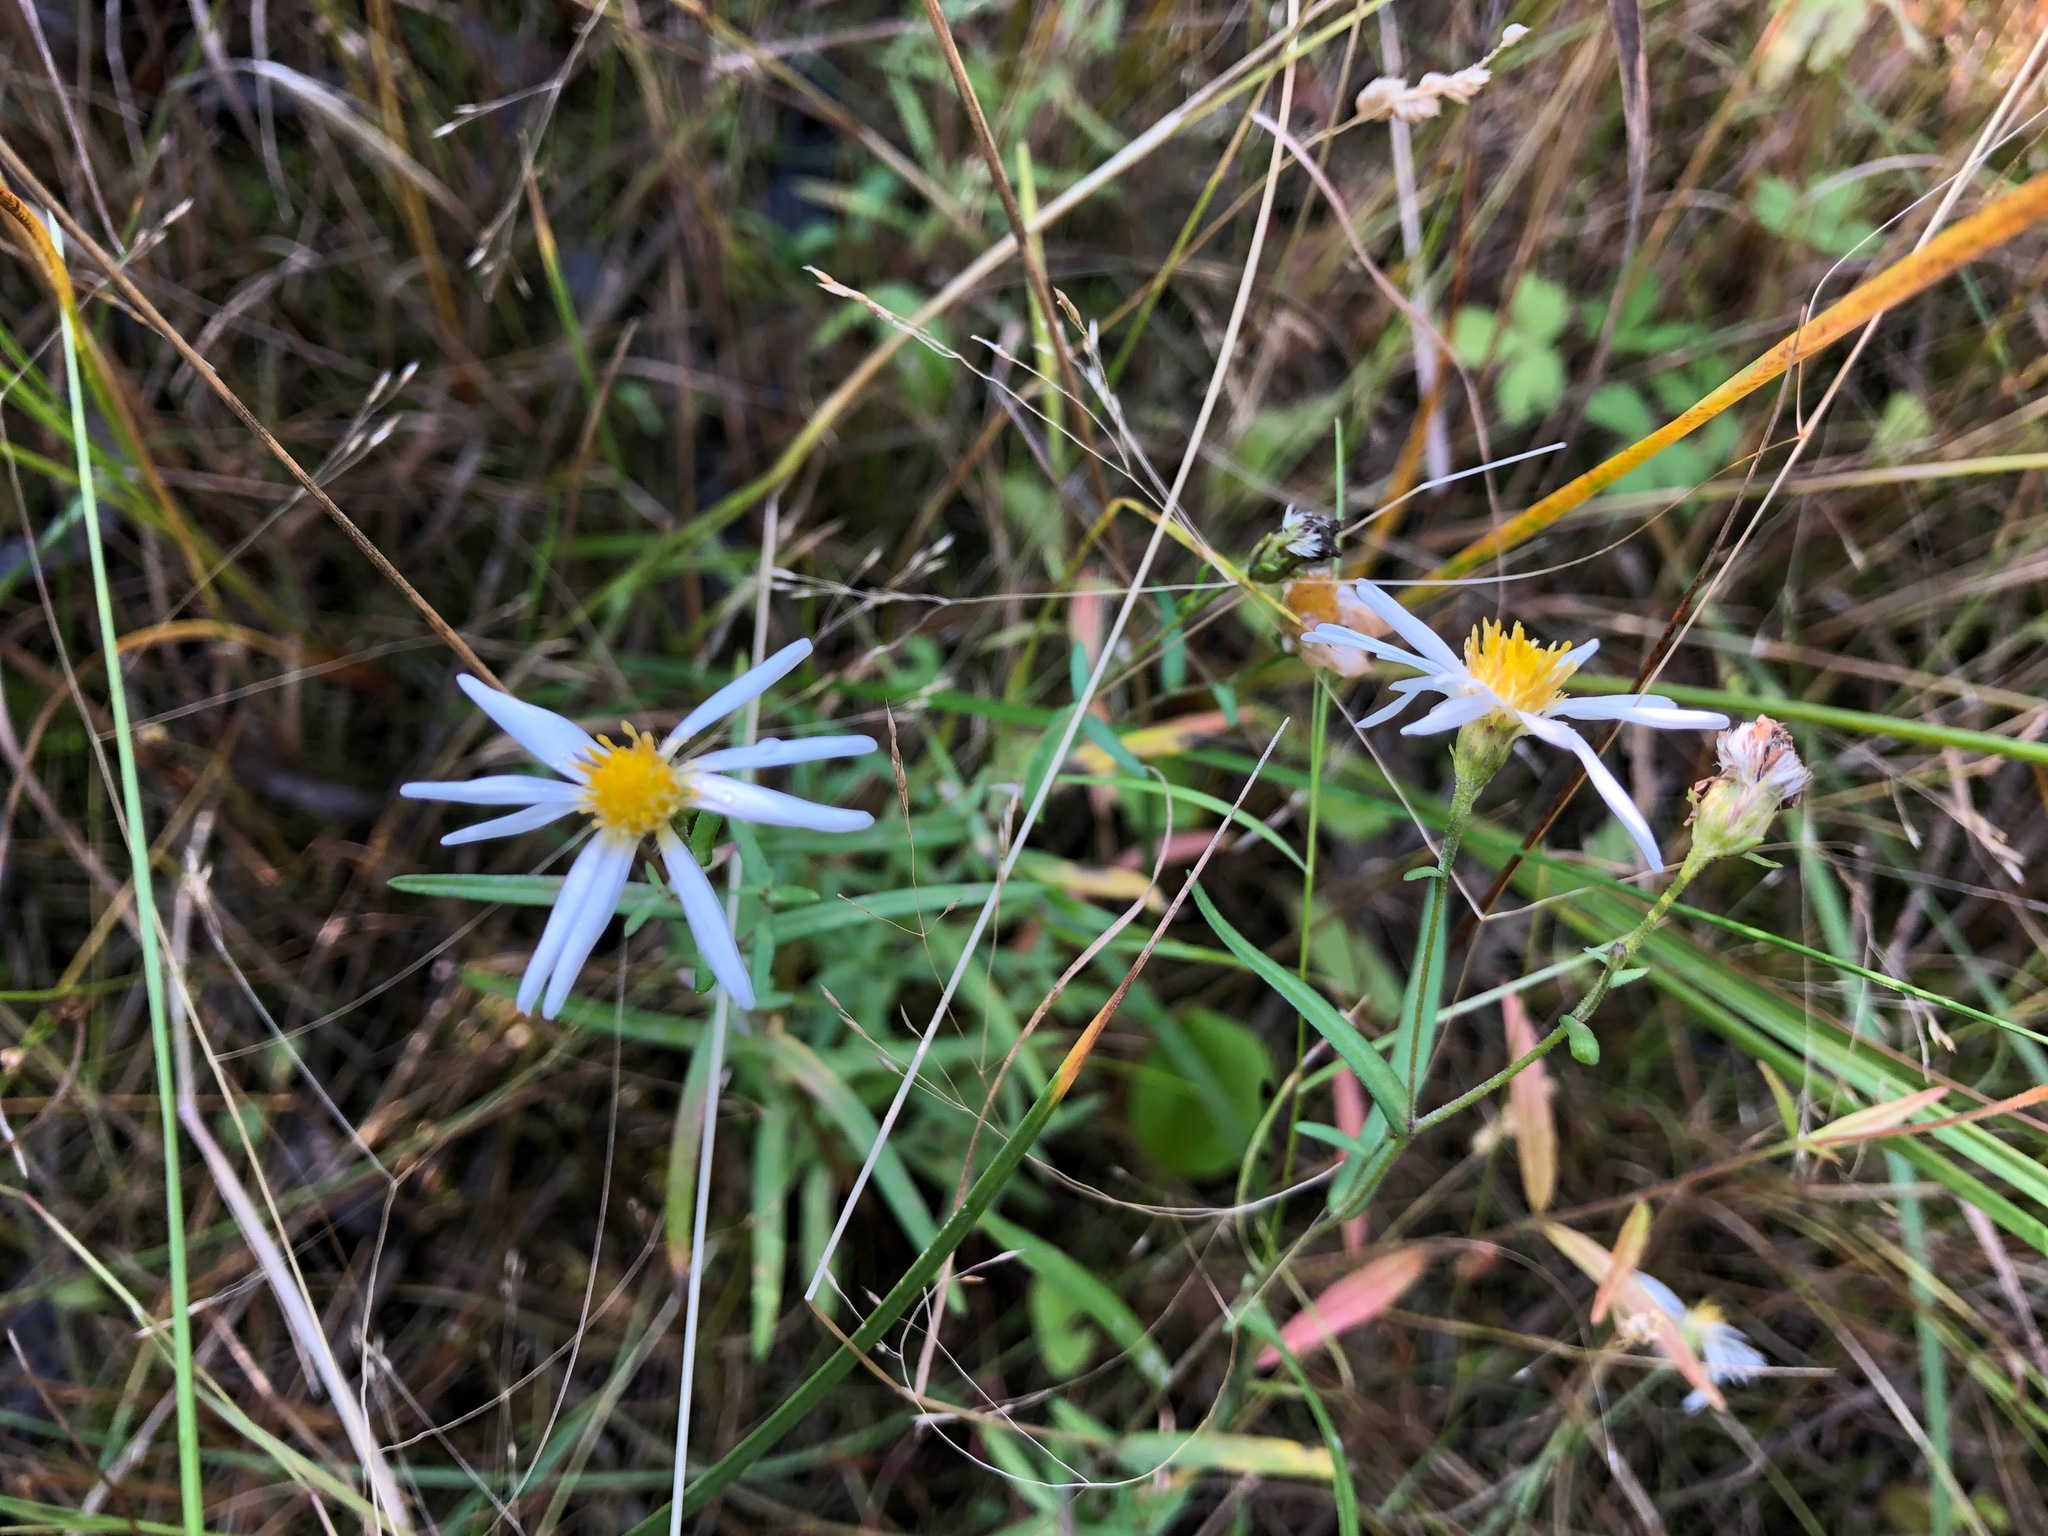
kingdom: Plantae
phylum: Tracheophyta
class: Magnoliopsida
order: Asterales
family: Asteraceae
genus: Symphyotrichum
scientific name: Symphyotrichum boreale
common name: Northern bog aster
